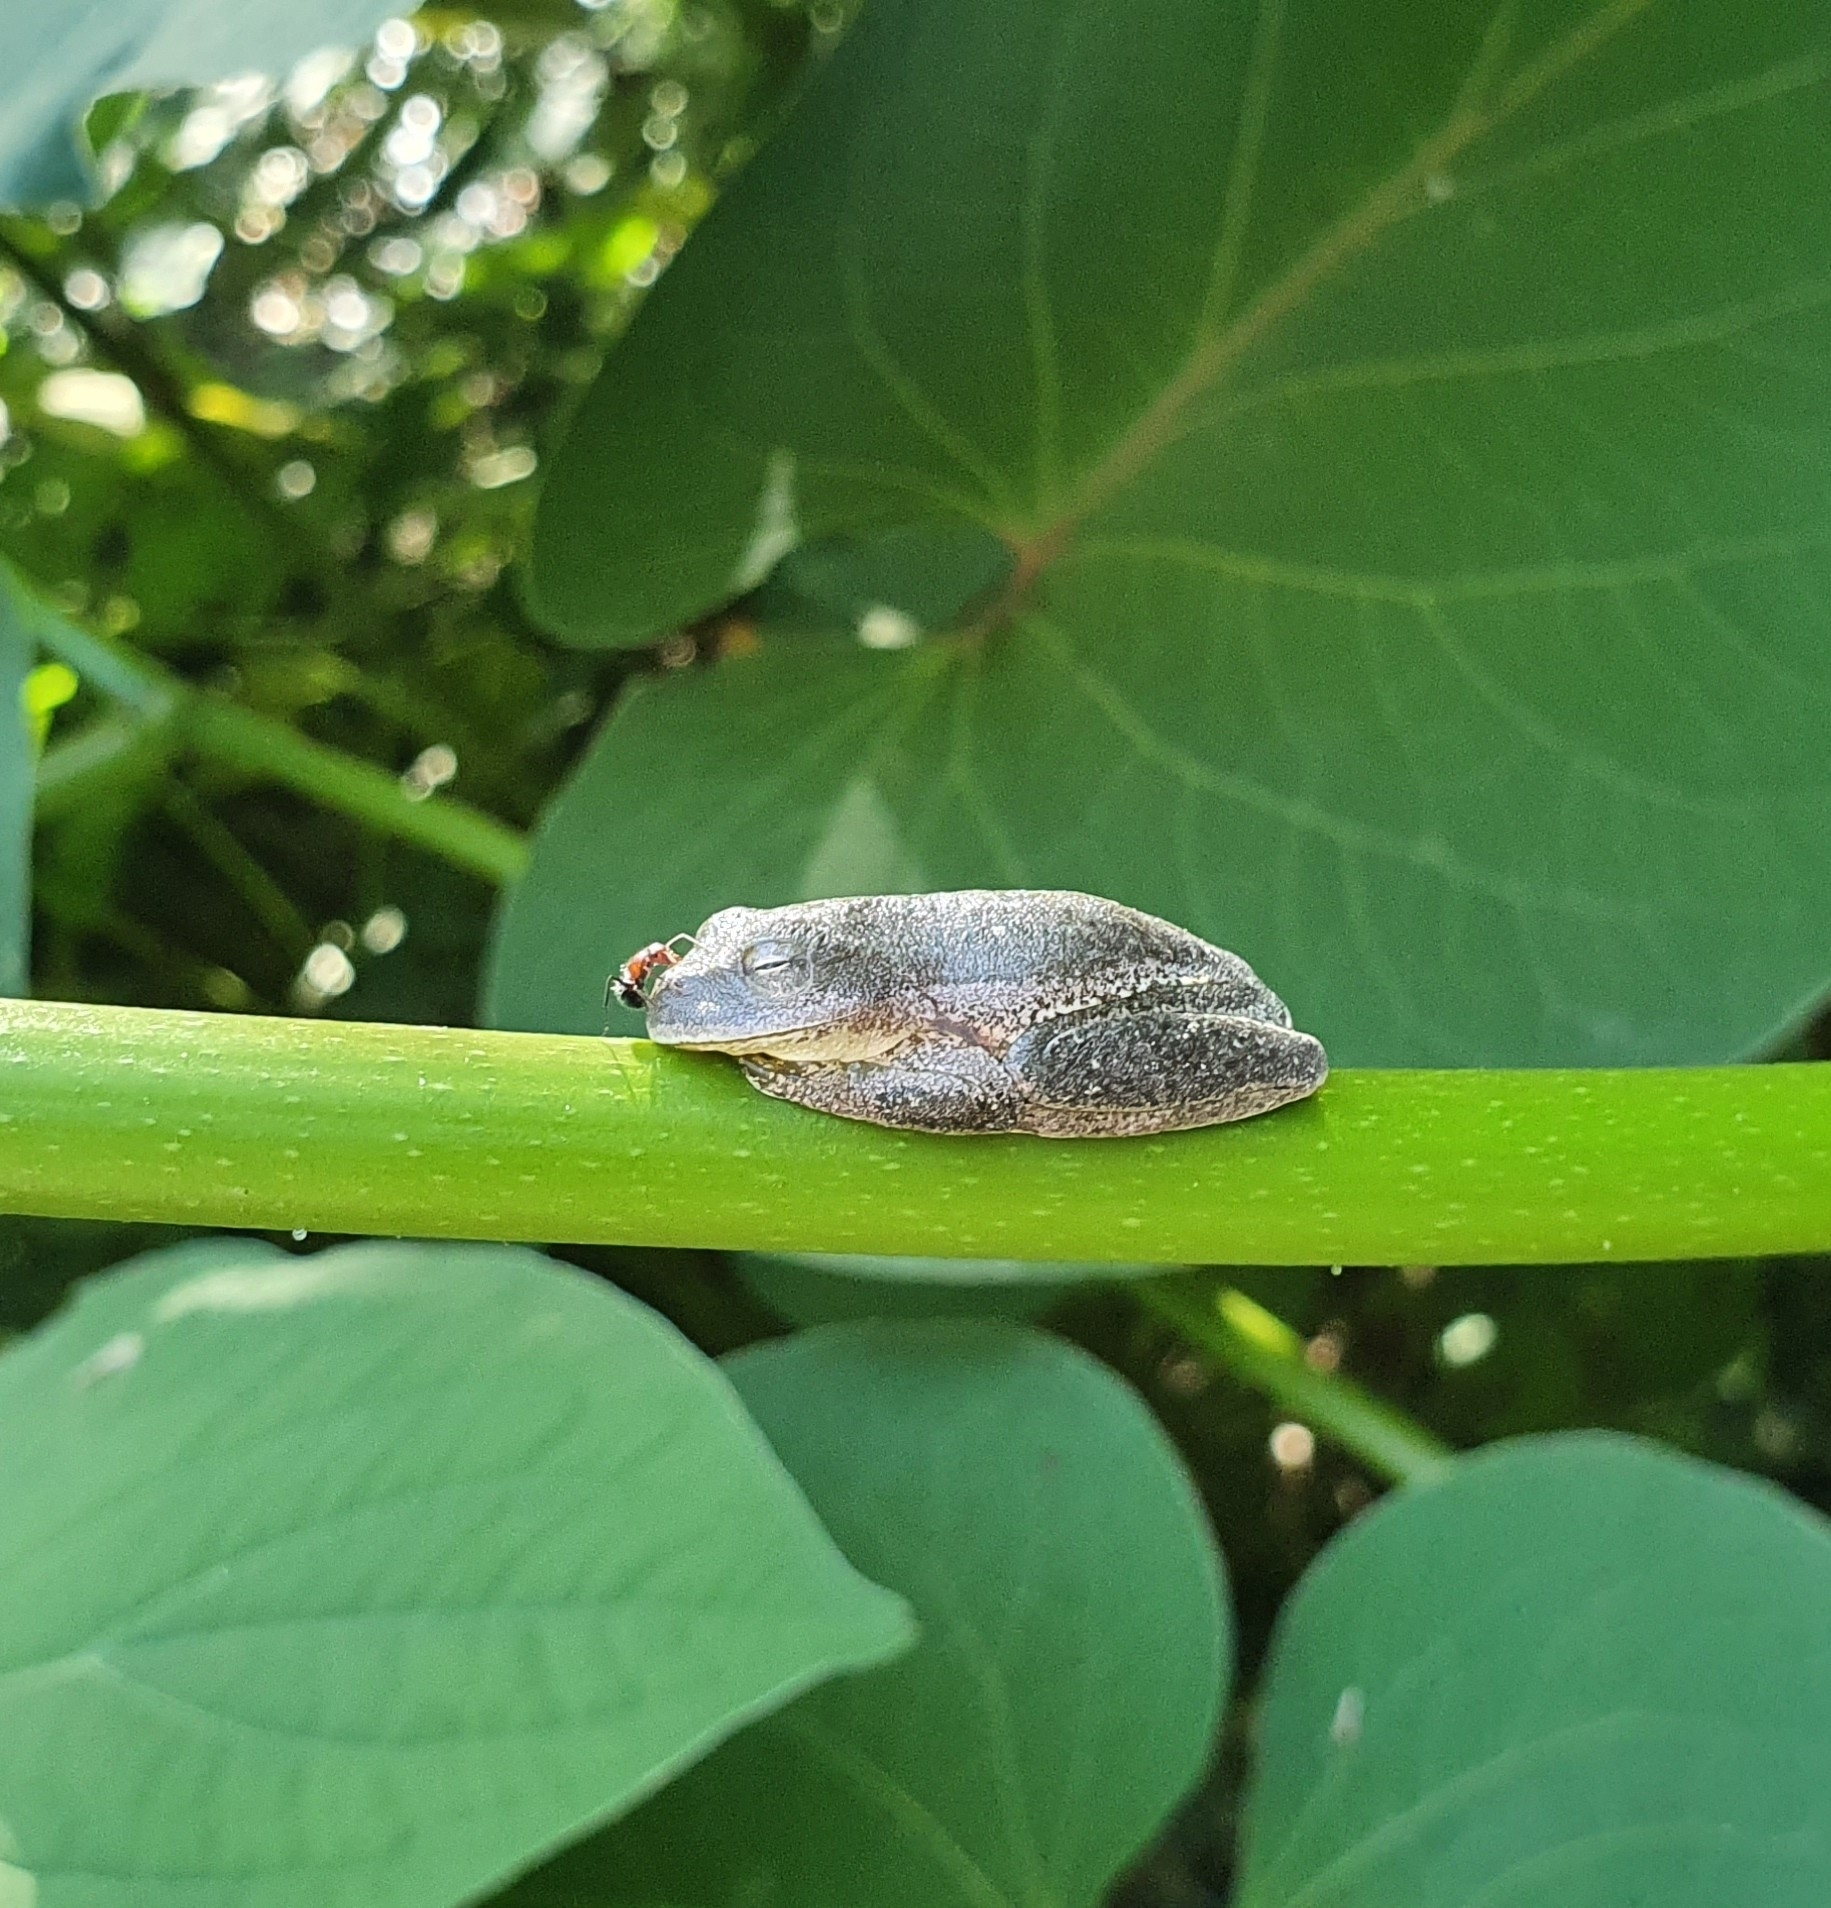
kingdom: Animalia
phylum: Chordata
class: Amphibia
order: Anura
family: Hylidae
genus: Rheohyla
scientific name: Rheohyla miotympanum
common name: Small-eard hyla
